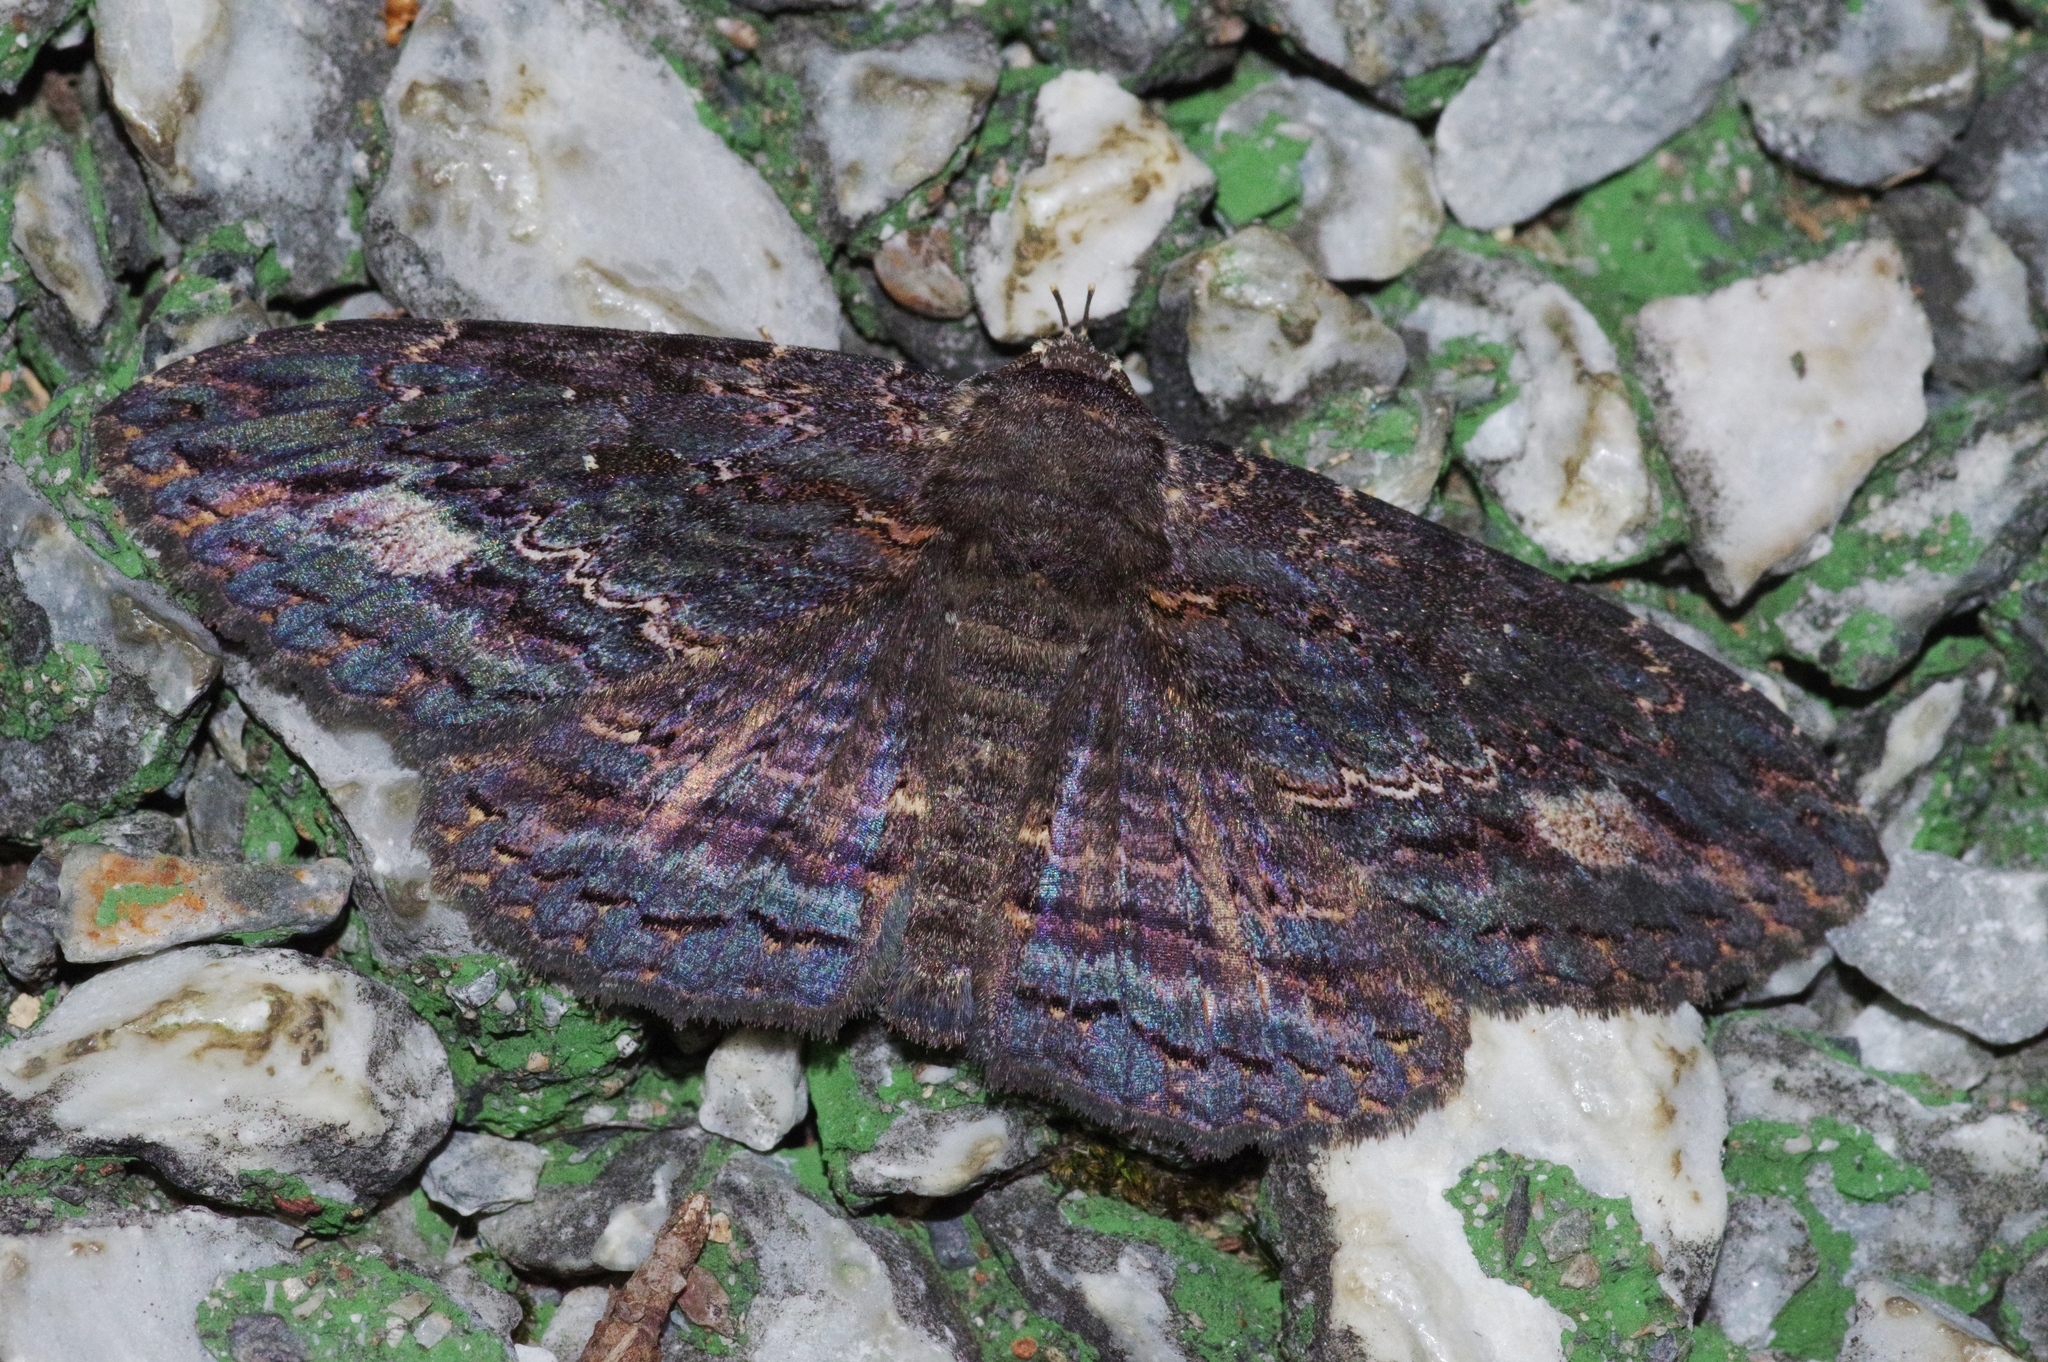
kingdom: Animalia
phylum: Arthropoda
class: Insecta
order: Lepidoptera
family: Erebidae
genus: Anisoneura
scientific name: Anisoneura salebrosa
